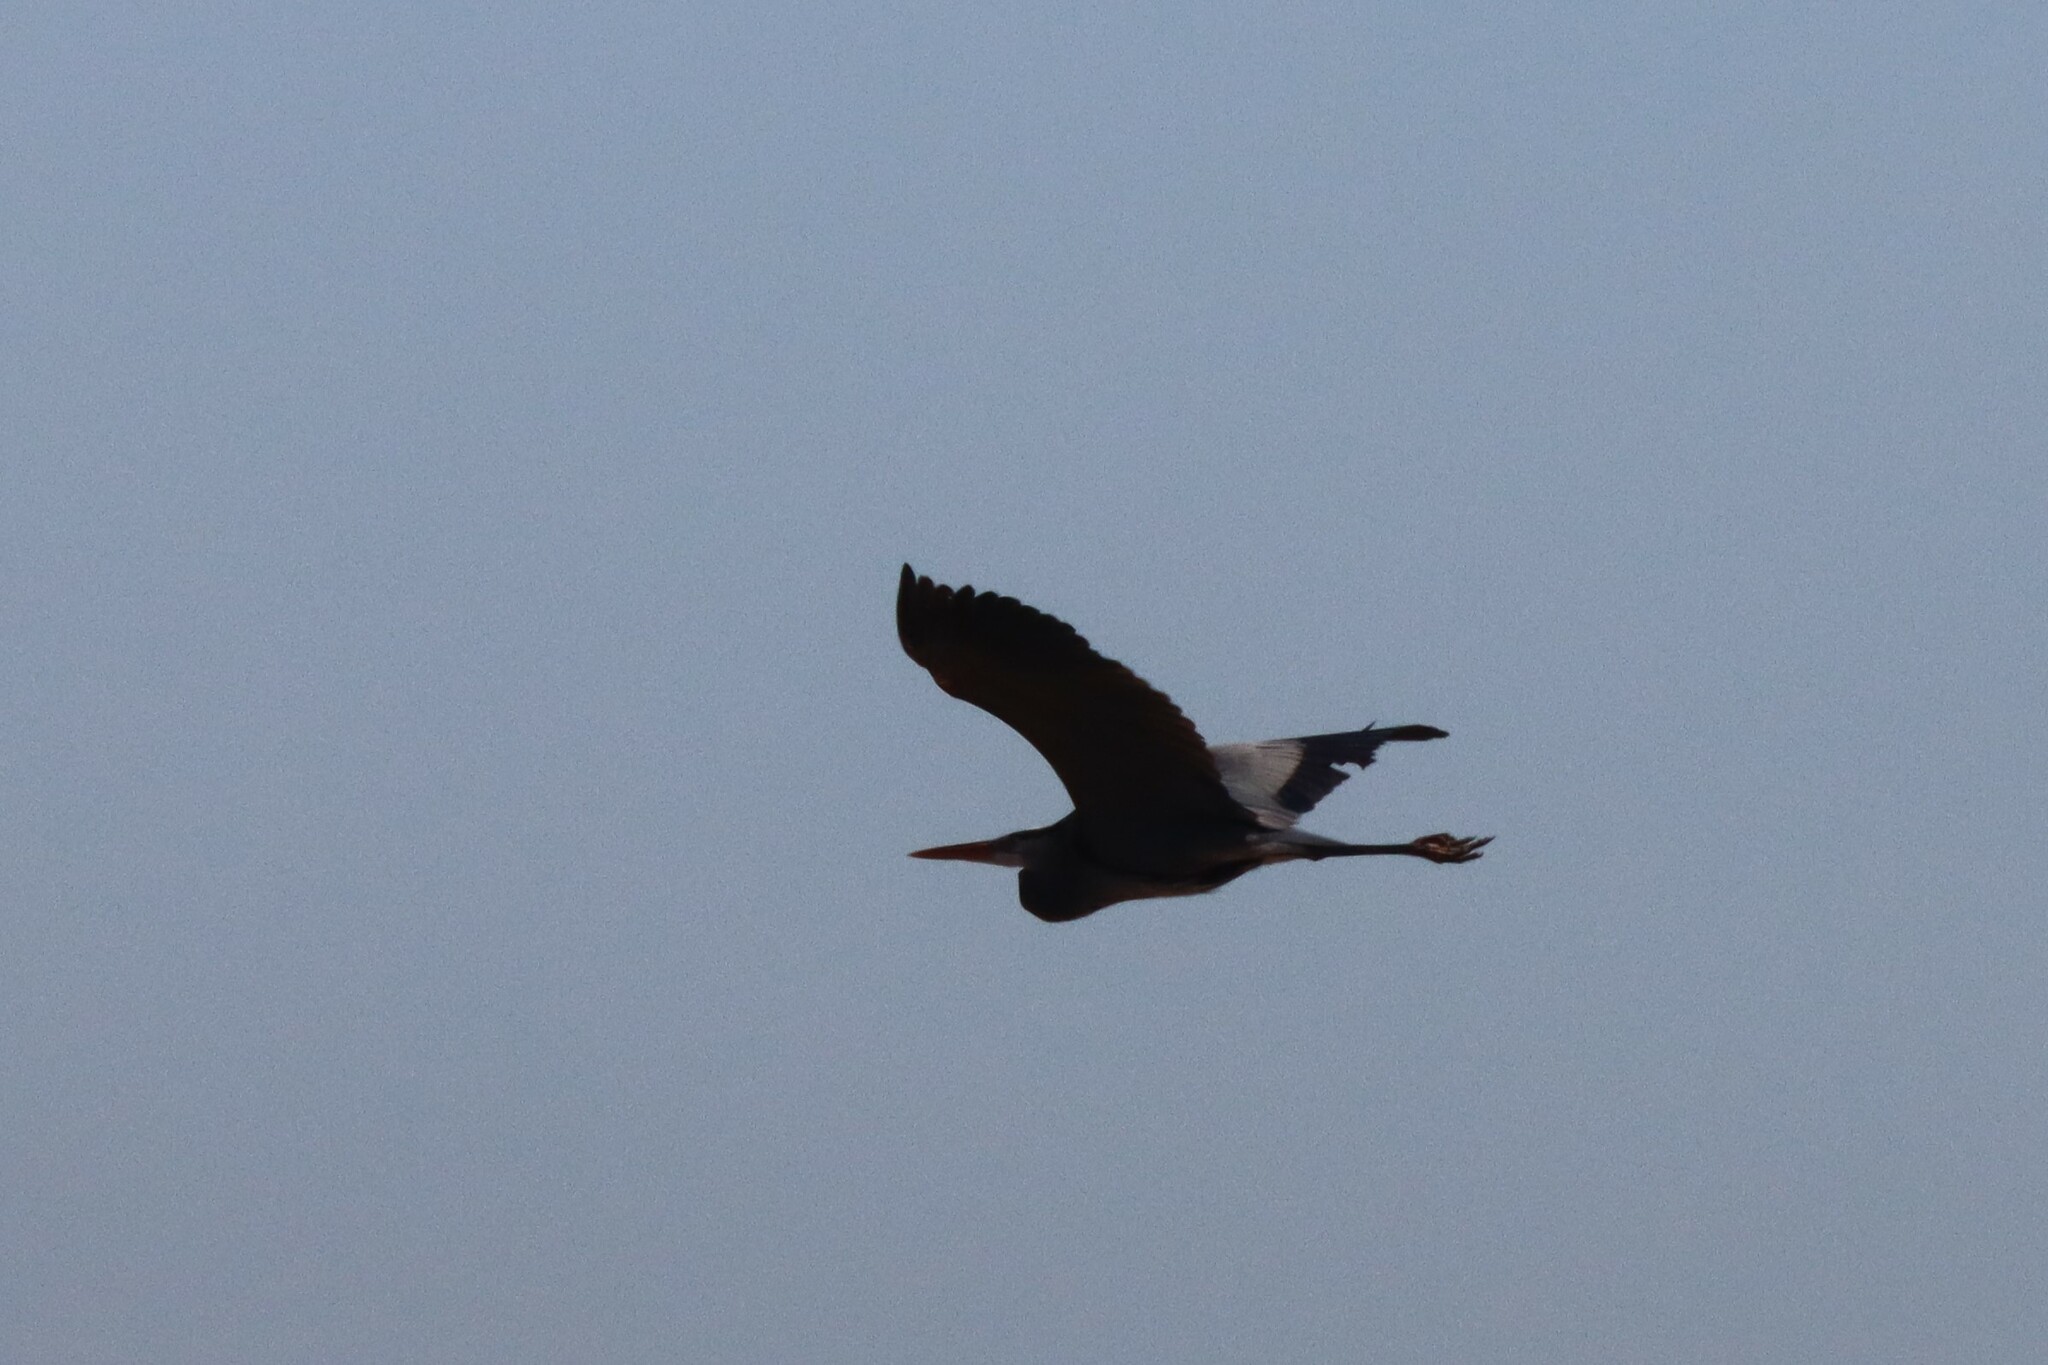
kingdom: Animalia
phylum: Chordata
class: Aves
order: Pelecaniformes
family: Ardeidae
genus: Ardea
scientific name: Ardea herodias
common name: Great blue heron
